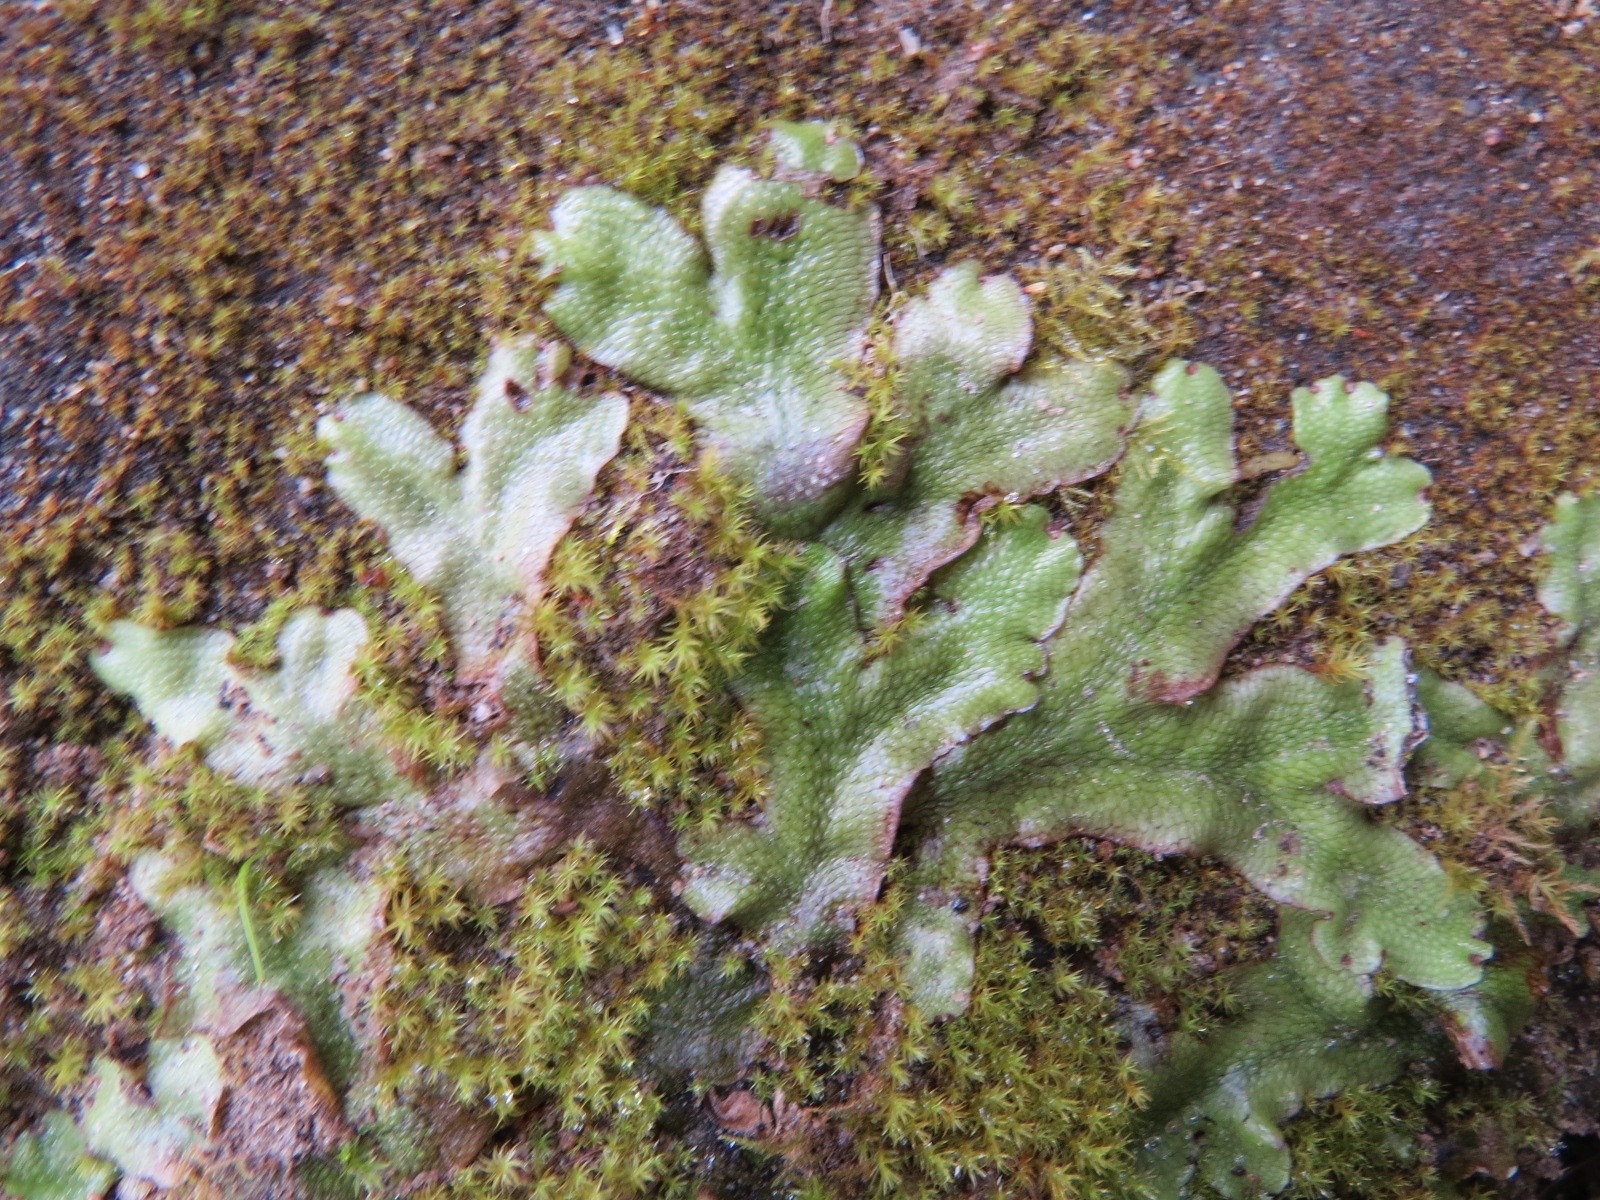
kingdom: Plantae
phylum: Marchantiophyta
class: Marchantiopsida
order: Marchantiales
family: Conocephalaceae
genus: Conocephalum
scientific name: Conocephalum salebrosum
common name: Cat-tongue liverwort
